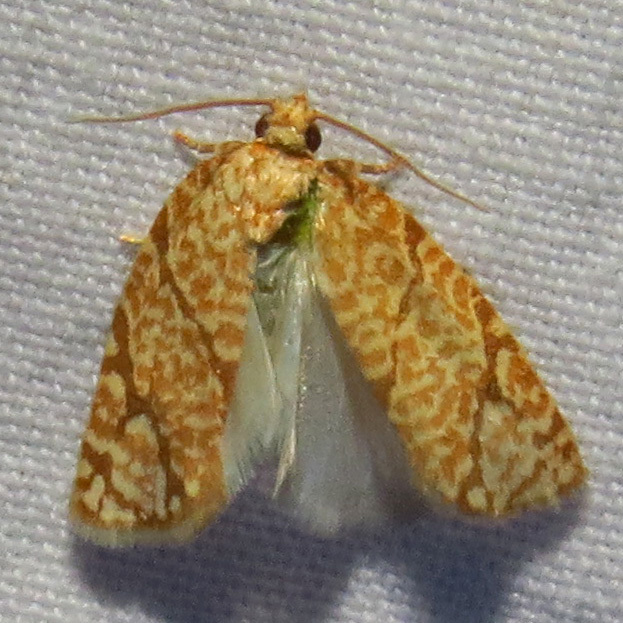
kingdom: Animalia
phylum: Arthropoda
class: Insecta
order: Lepidoptera
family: Tortricidae
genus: Argyrotaenia
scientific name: Argyrotaenia quercifoliana
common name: Yellow-winged oak leafroller moth
